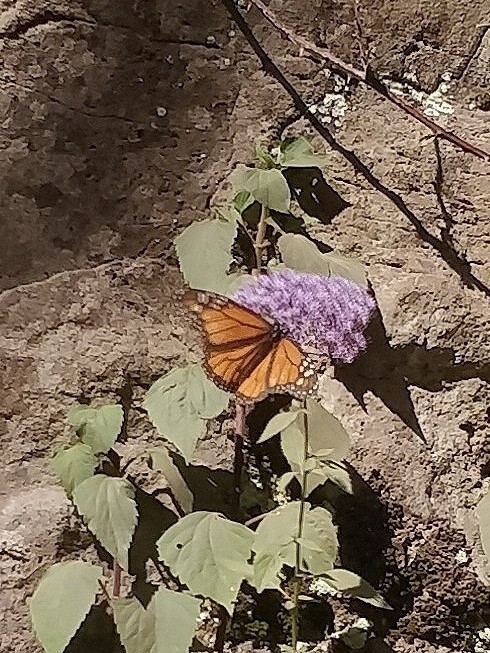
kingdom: Animalia
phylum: Arthropoda
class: Insecta
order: Lepidoptera
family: Nymphalidae
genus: Danaus
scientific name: Danaus plexippus
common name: Monarch
